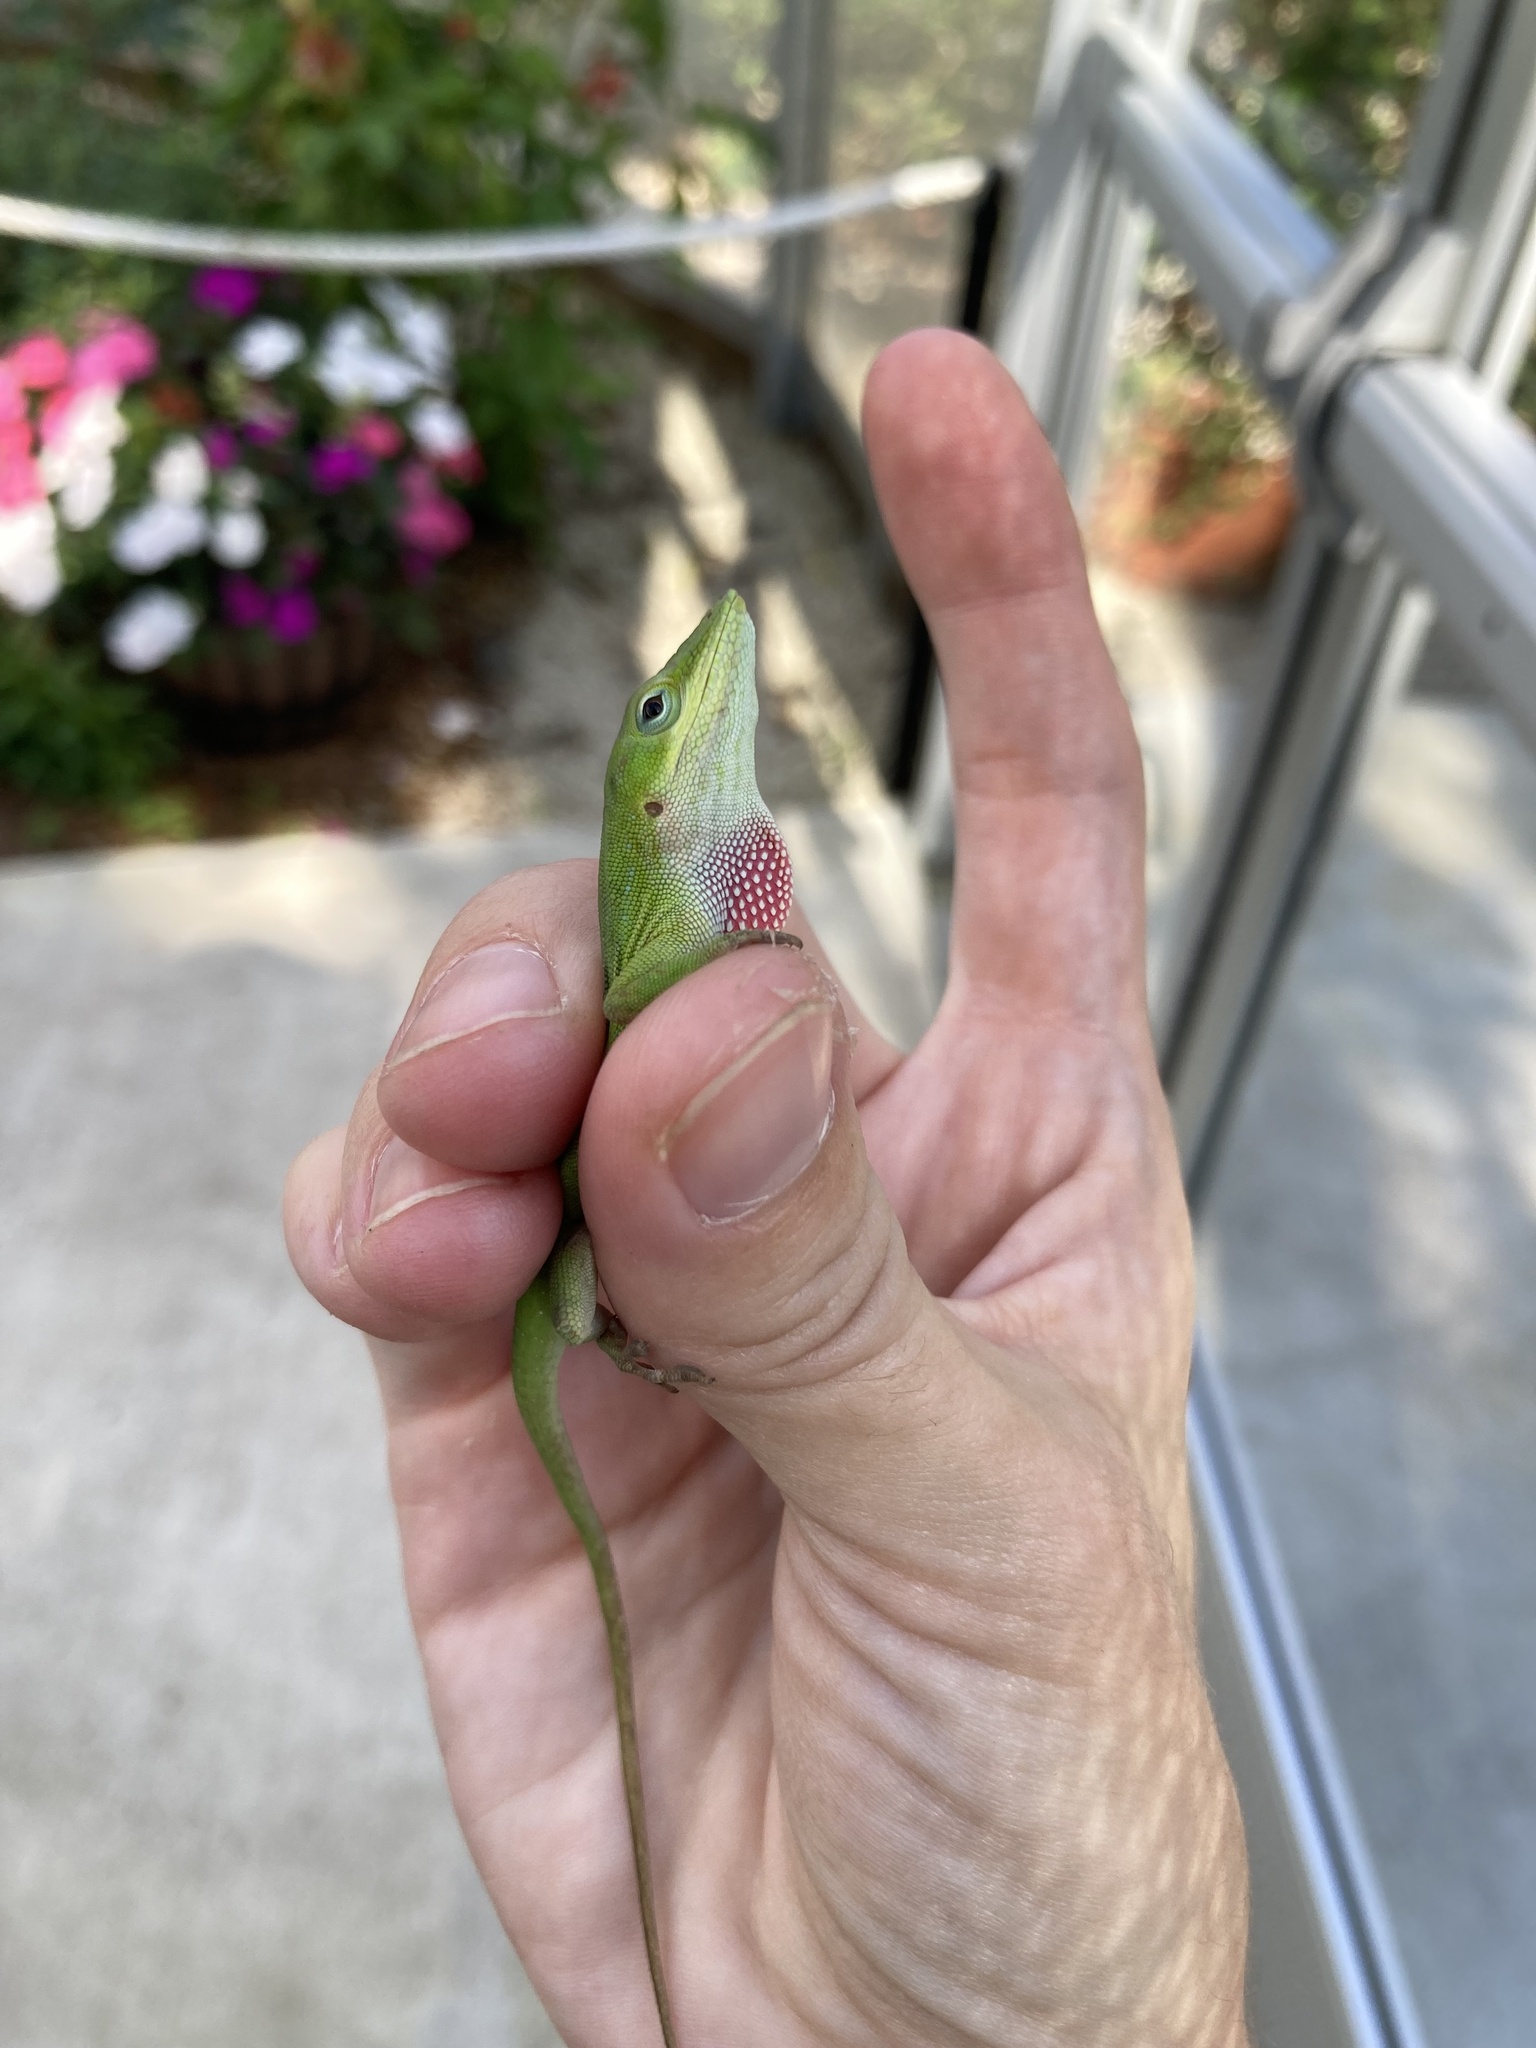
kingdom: Animalia
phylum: Chordata
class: Squamata
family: Dactyloidae
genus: Anolis
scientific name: Anolis carolinensis
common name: Green anole
